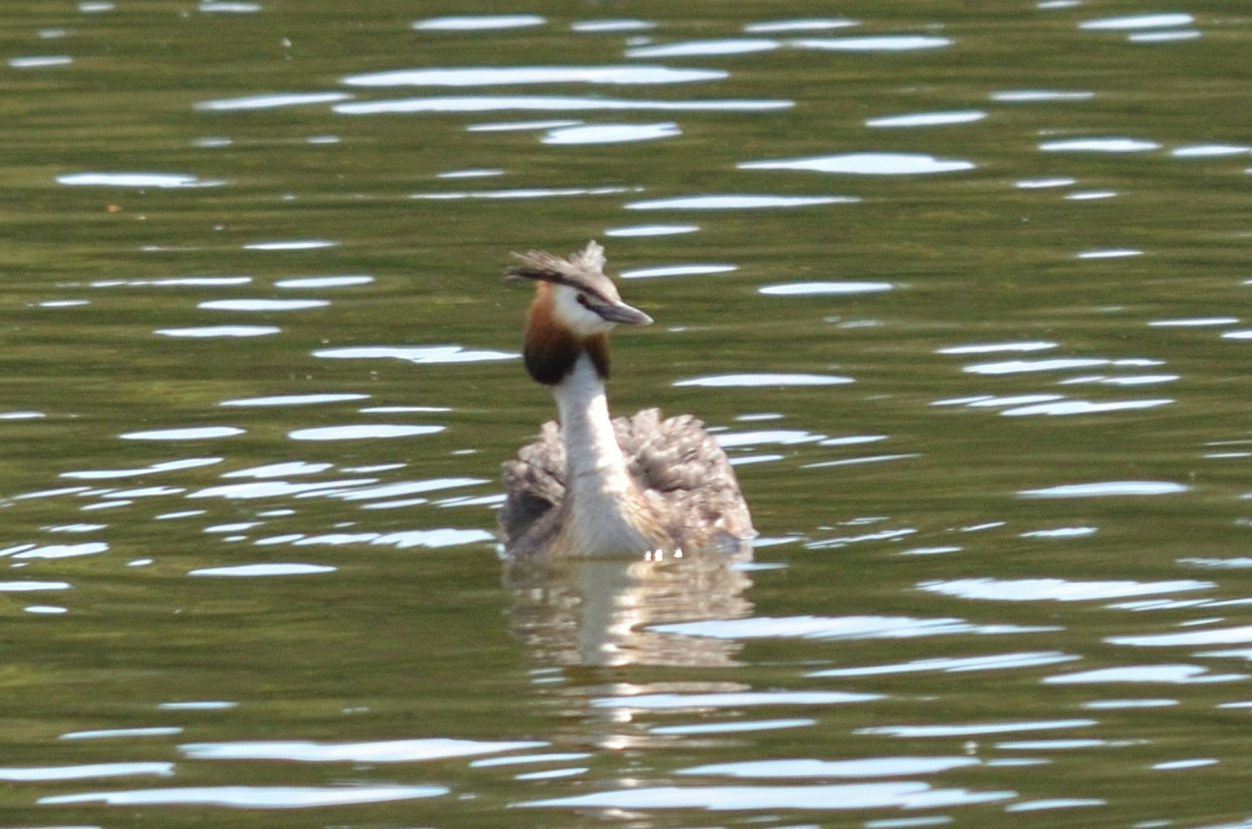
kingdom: Animalia
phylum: Chordata
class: Aves
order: Podicipediformes
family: Podicipedidae
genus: Podiceps
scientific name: Podiceps cristatus
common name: Great crested grebe
